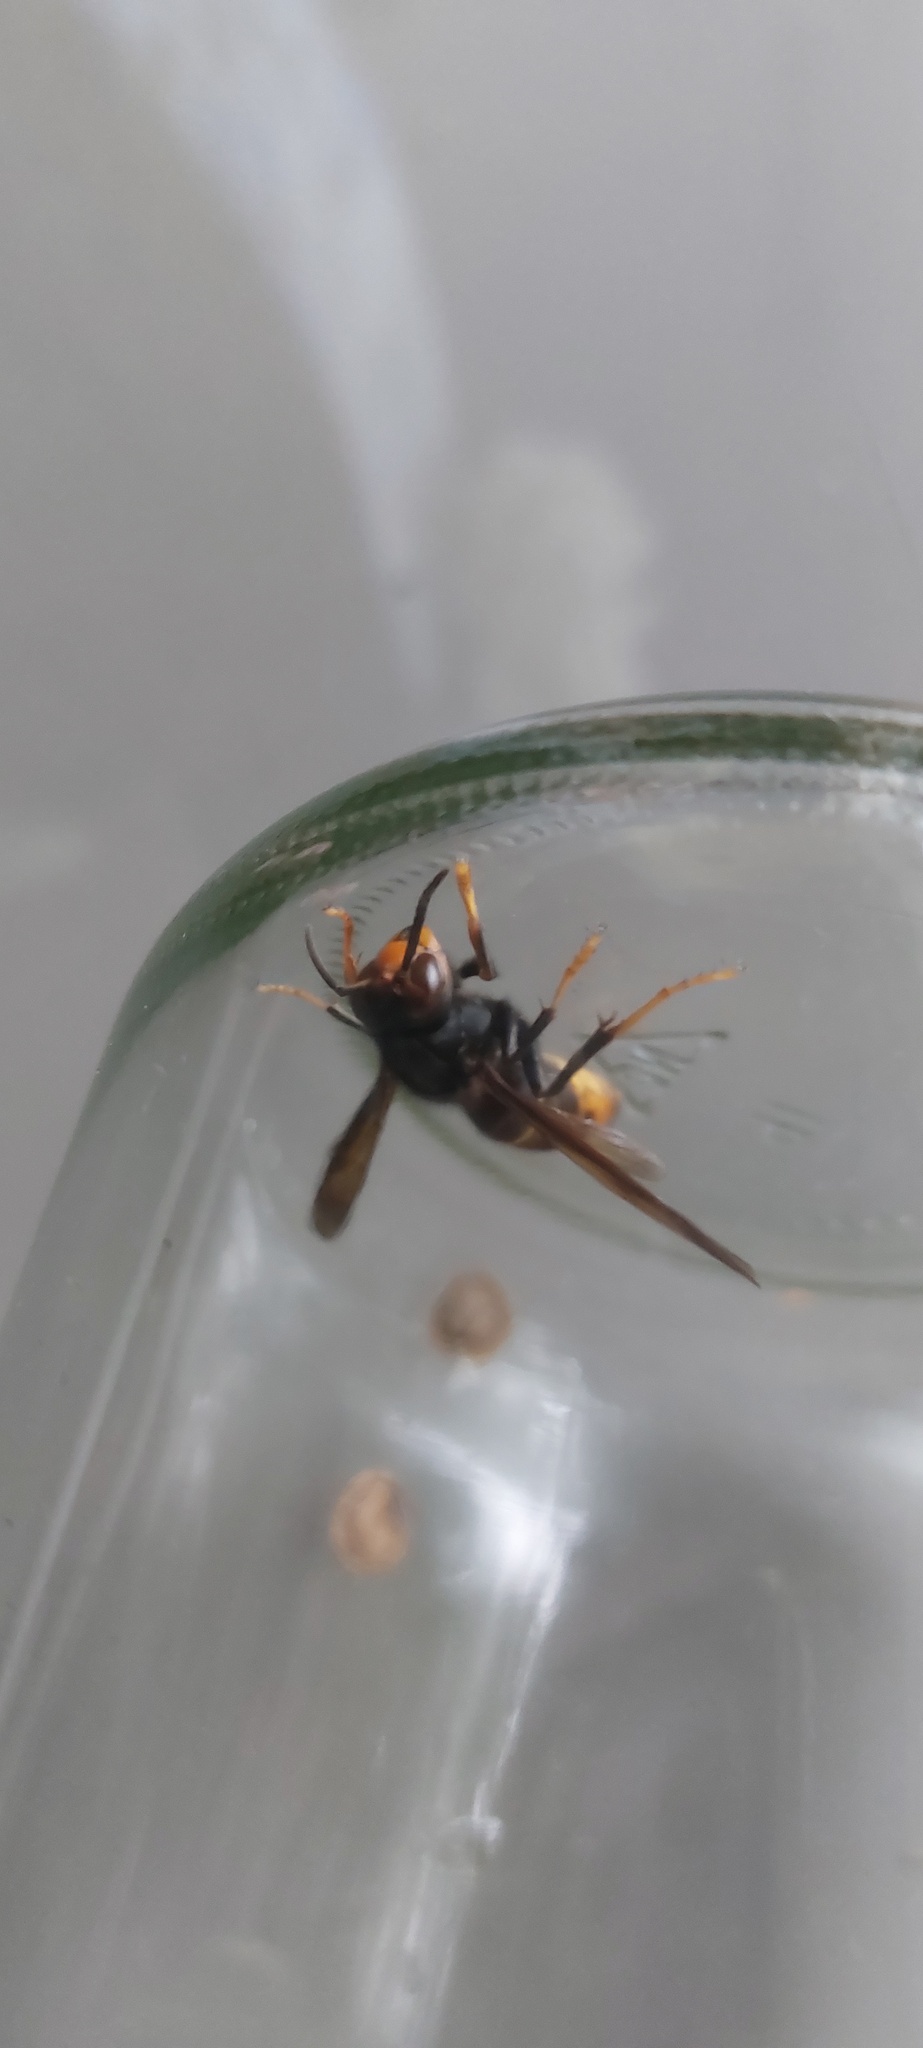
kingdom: Animalia
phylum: Arthropoda
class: Insecta
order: Hymenoptera
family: Vespidae
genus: Vespa
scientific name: Vespa velutina
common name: Asian hornet
